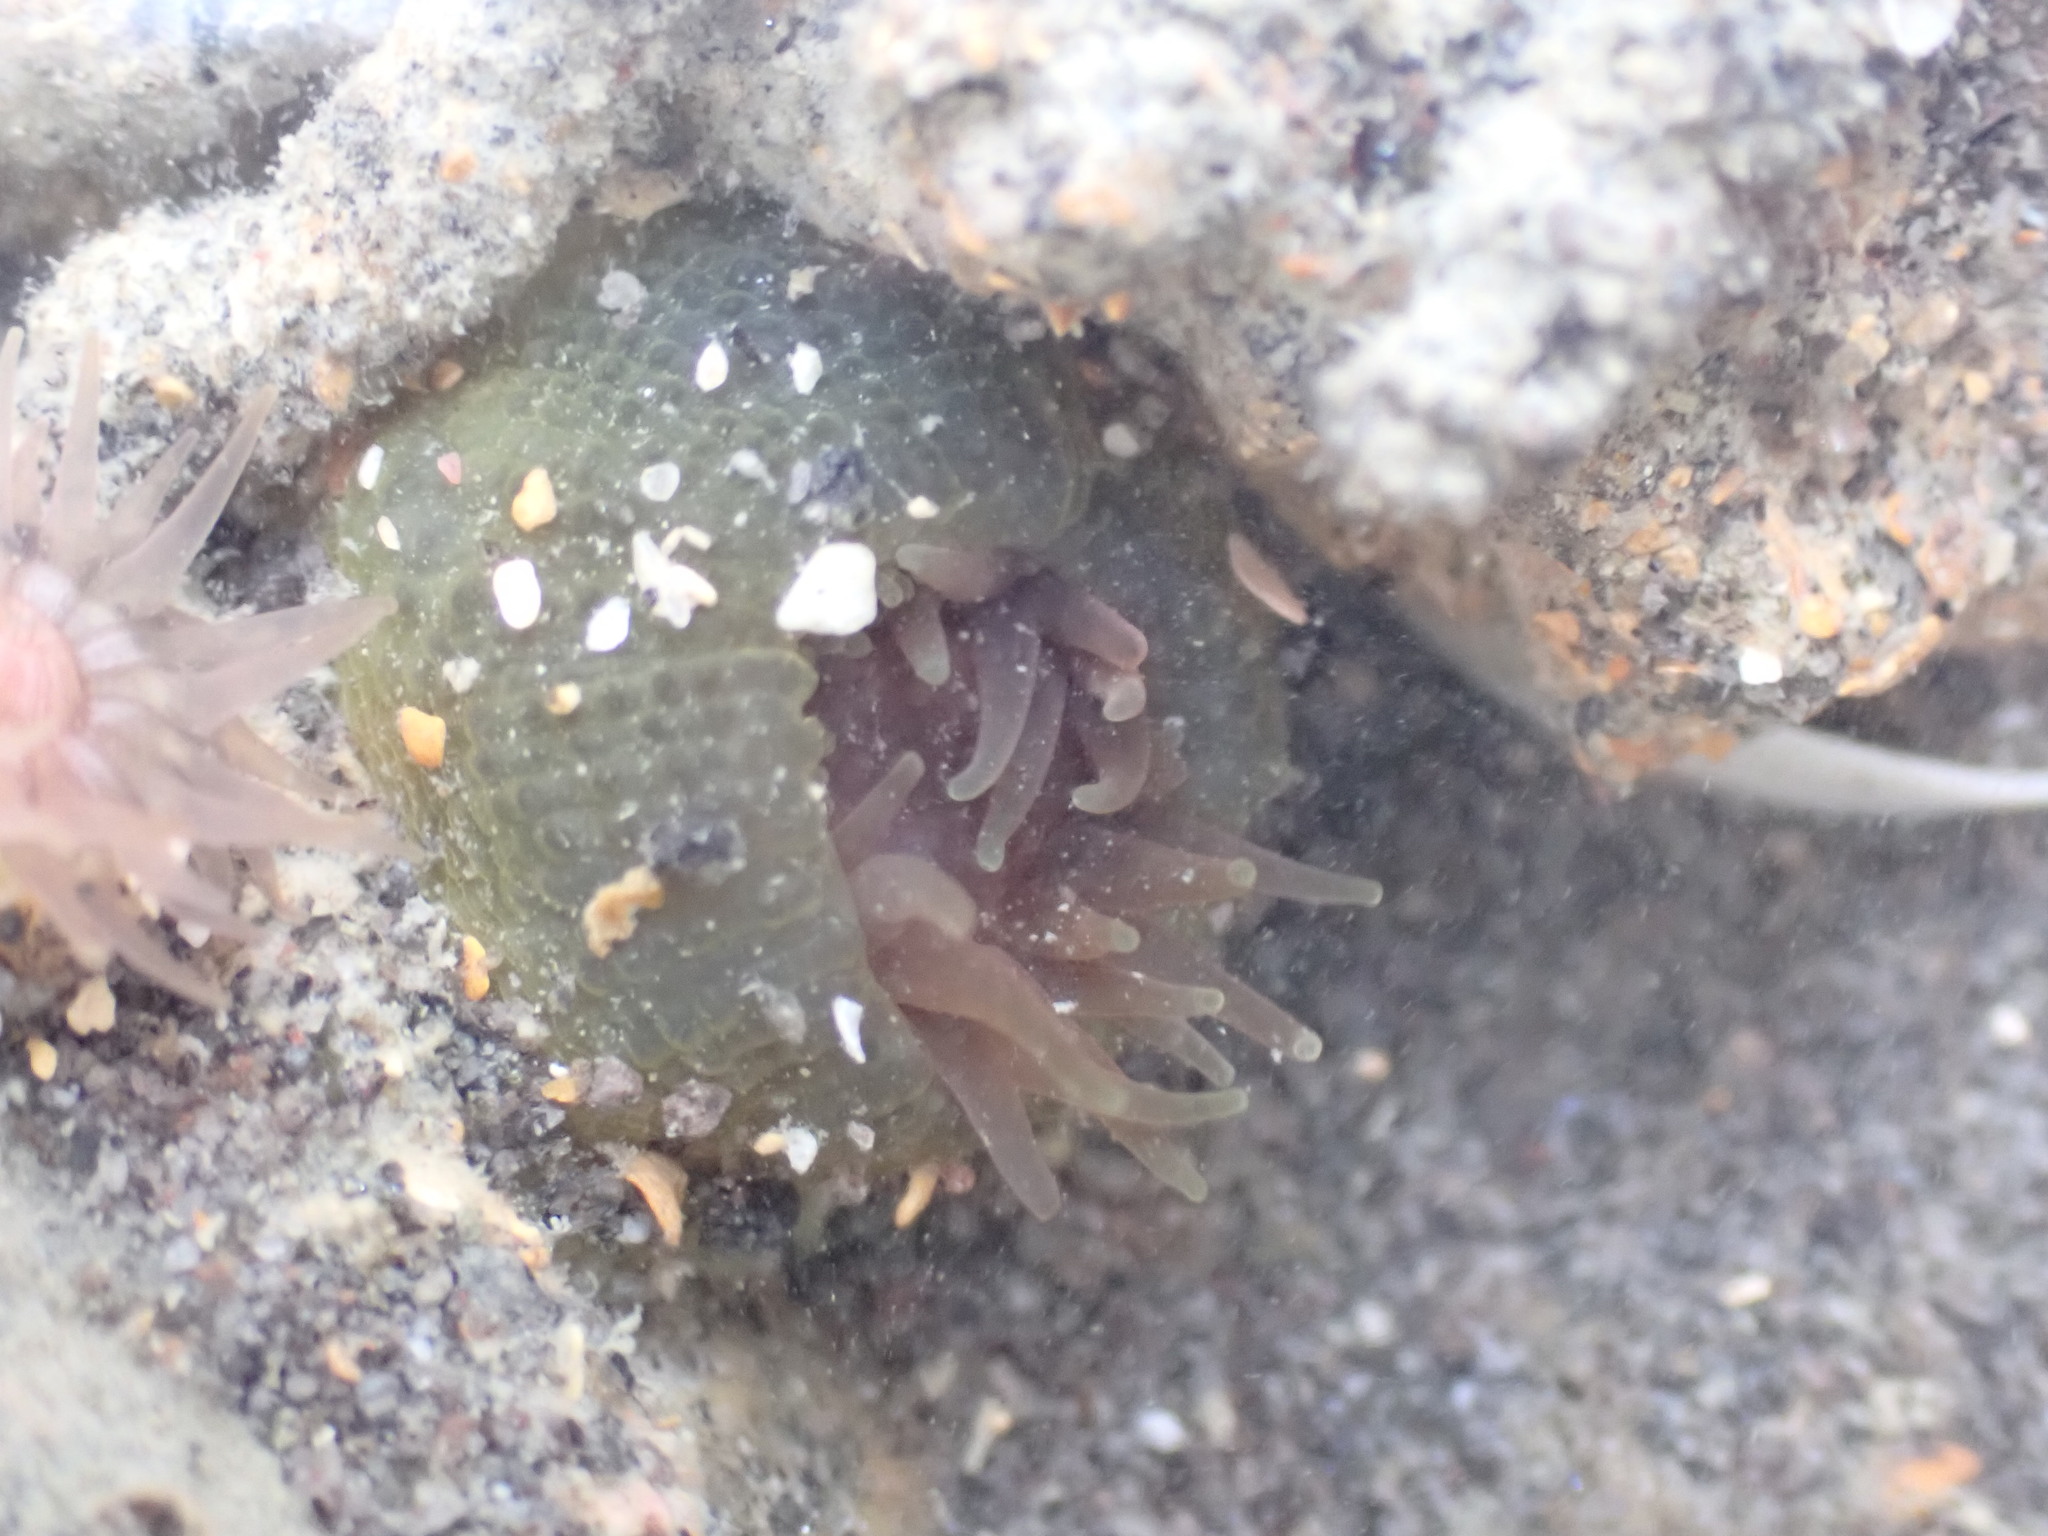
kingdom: Animalia
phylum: Cnidaria
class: Anthozoa
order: Actiniaria
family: Actiniidae
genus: Isactinia
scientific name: Isactinia olivacea
